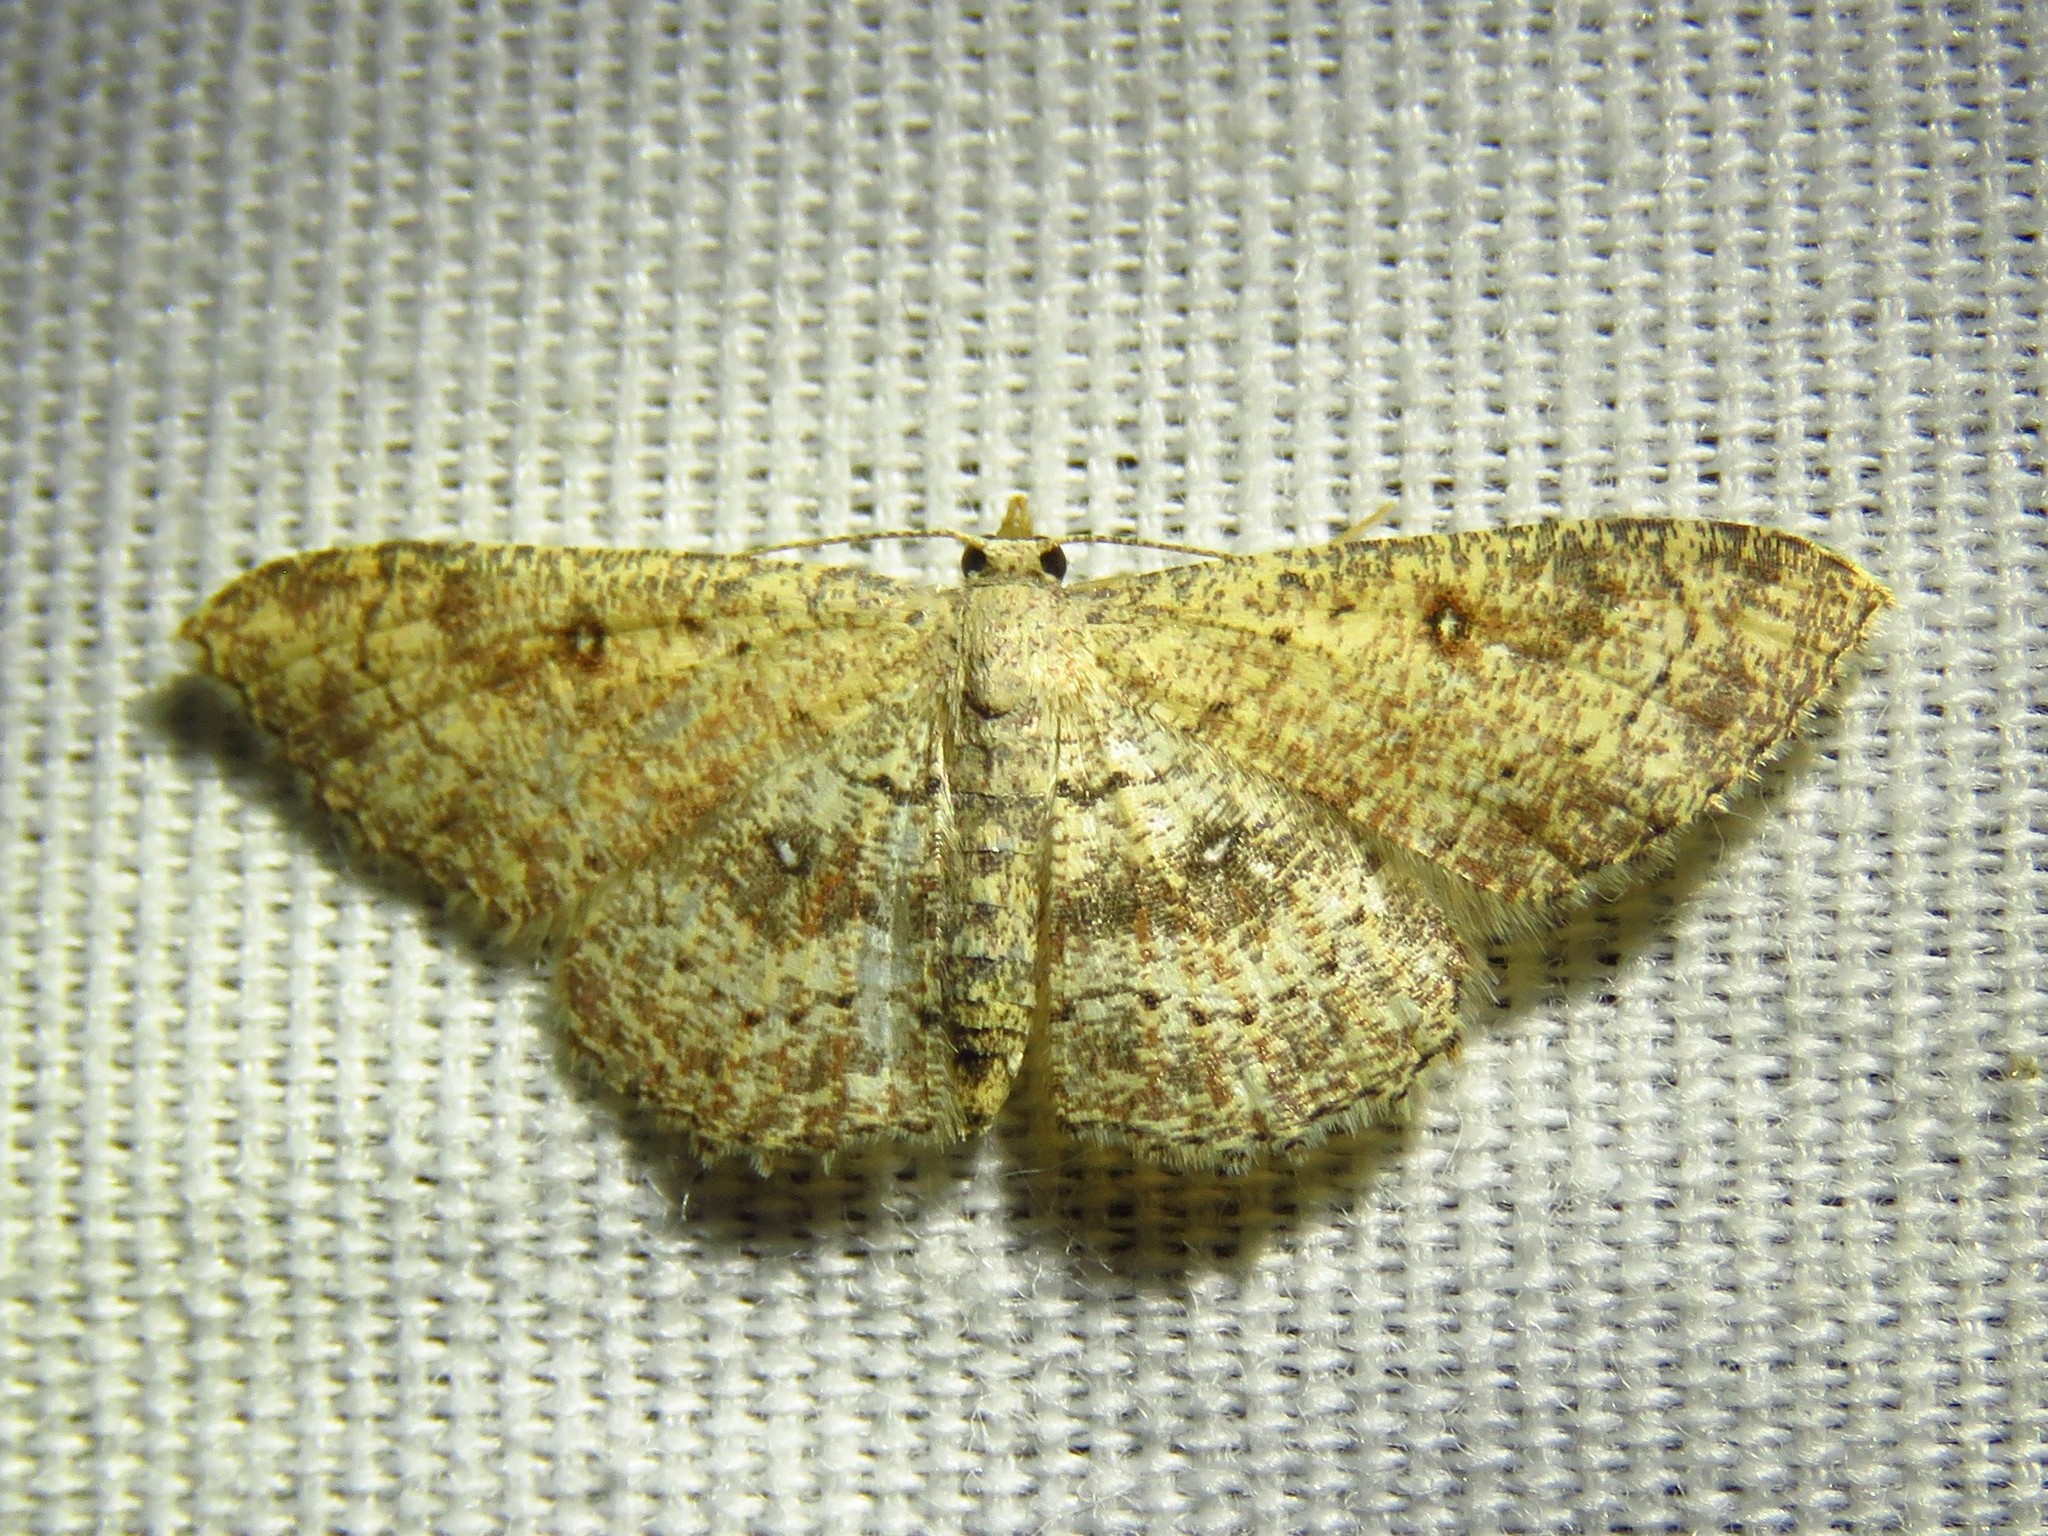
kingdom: Animalia
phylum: Arthropoda
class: Insecta
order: Lepidoptera
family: Geometridae
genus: Cyclophora
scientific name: Cyclophora nanaria
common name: Cankerworm
